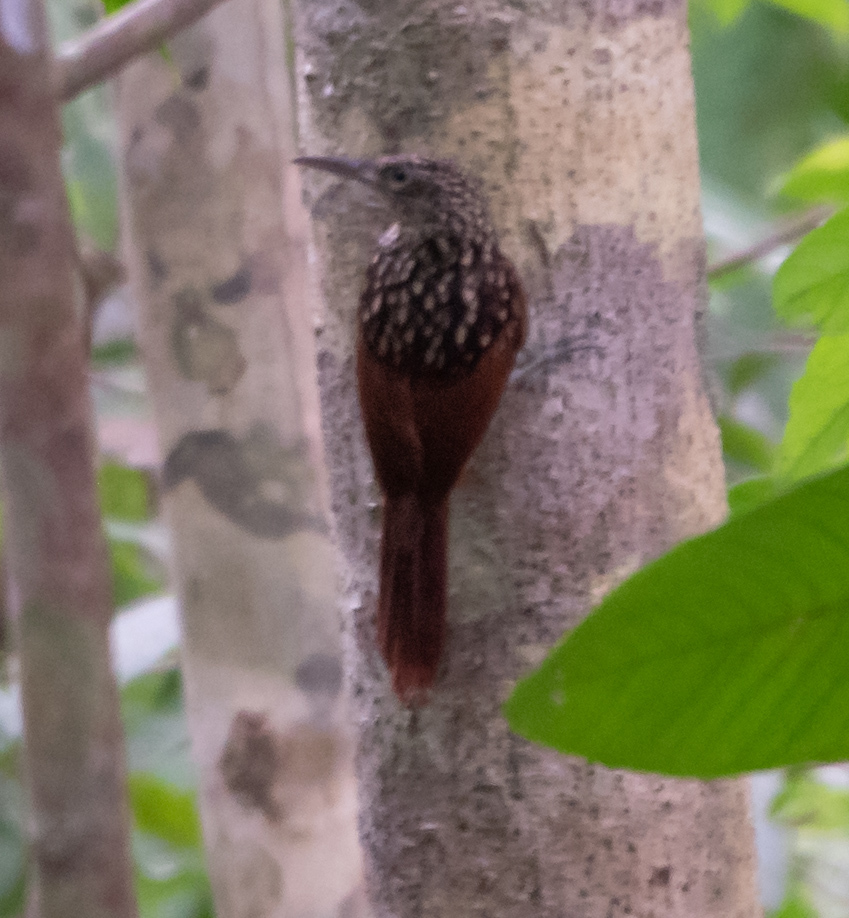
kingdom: Animalia
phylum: Chordata
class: Aves
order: Passeriformes
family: Furnariidae
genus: Xiphorhynchus
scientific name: Xiphorhynchus lachrymosus
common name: Black-striped woodcreeper
